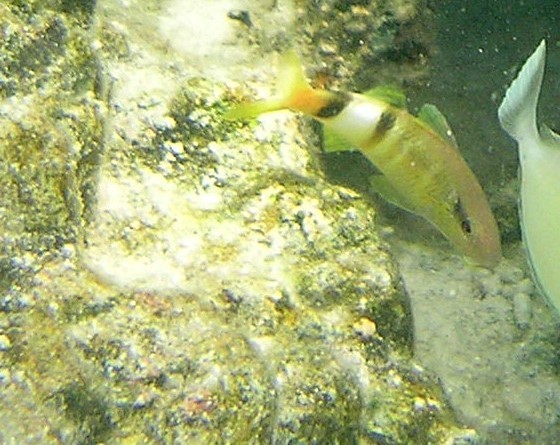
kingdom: Animalia
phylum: Chordata
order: Perciformes
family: Mullidae
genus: Parupeneus
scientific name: Parupeneus multifasciatus
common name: Manybar goatfish
